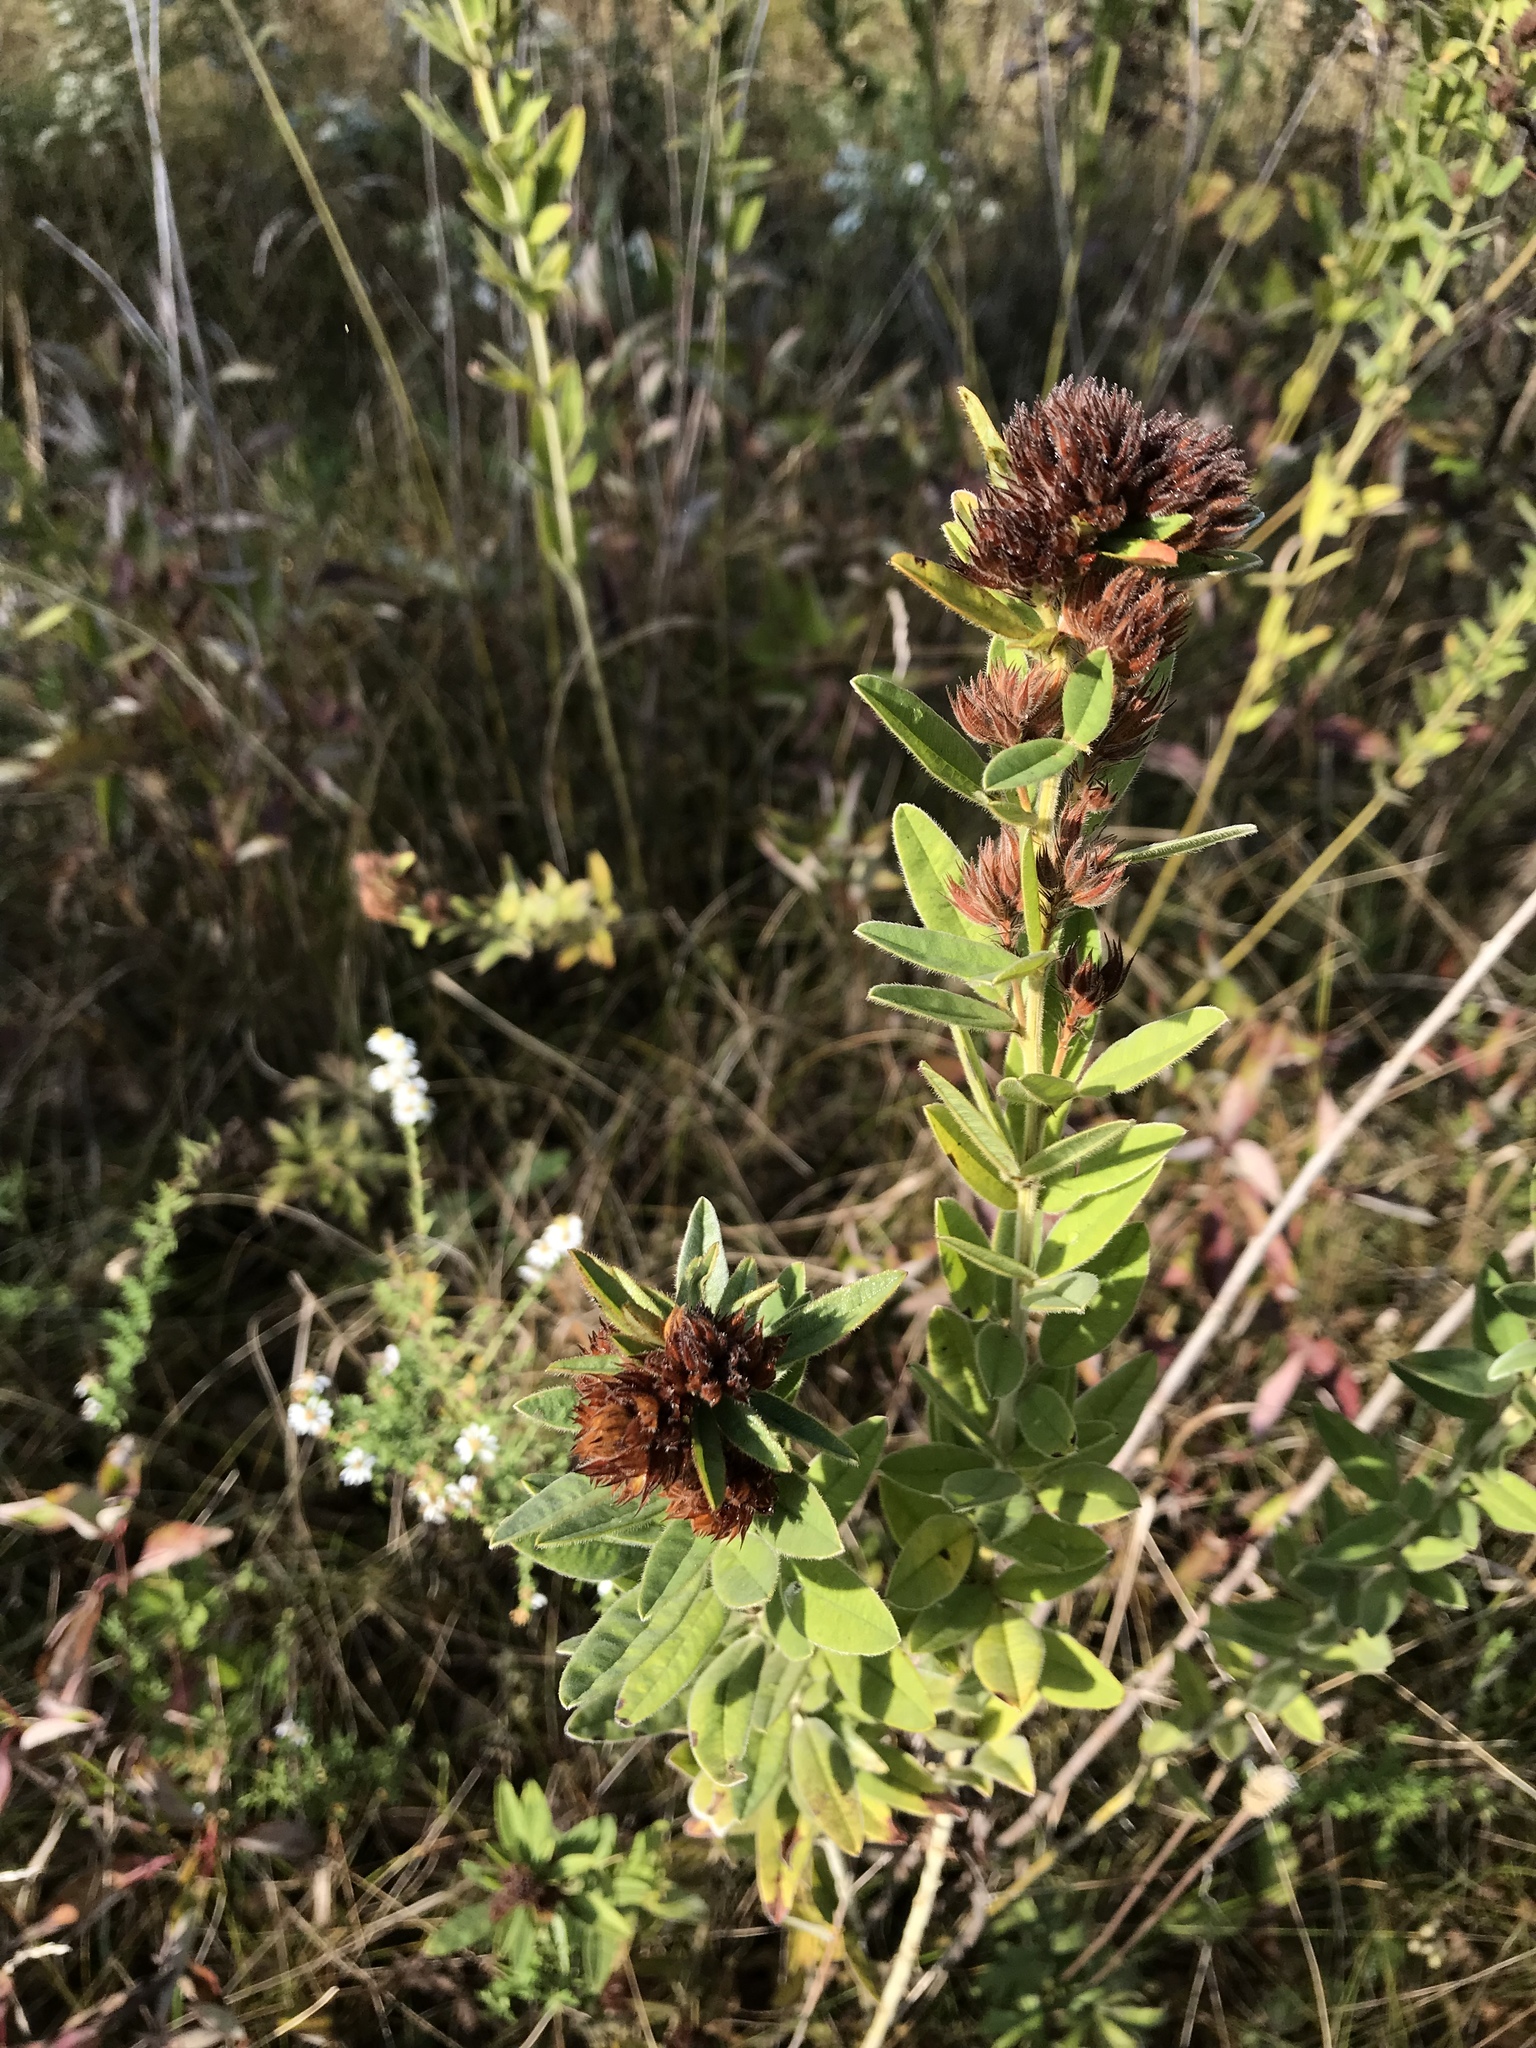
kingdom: Plantae
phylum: Tracheophyta
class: Magnoliopsida
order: Fabales
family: Fabaceae
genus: Lespedeza
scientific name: Lespedeza capitata
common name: Dusty clover
